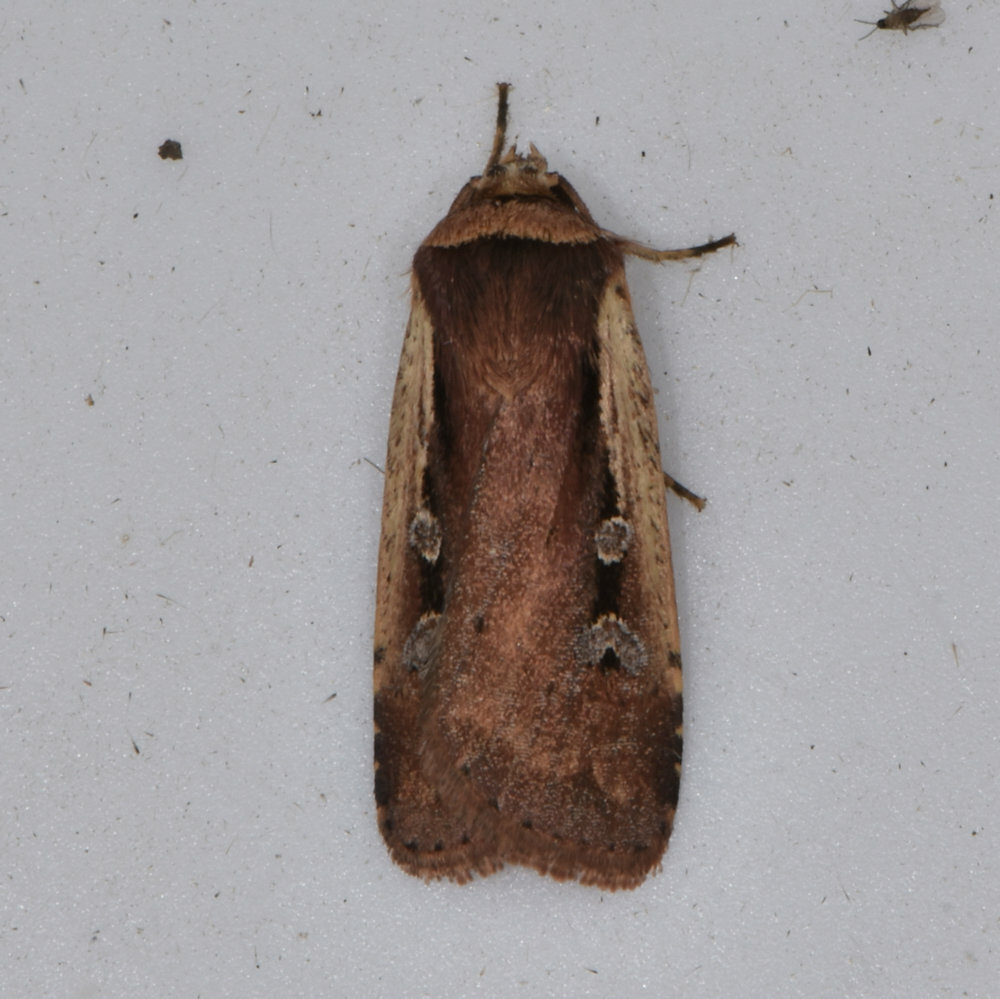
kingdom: Animalia
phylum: Arthropoda
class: Insecta
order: Lepidoptera
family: Noctuidae
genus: Ochropleura
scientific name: Ochropleura implecta
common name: Flame-shouldered dart
